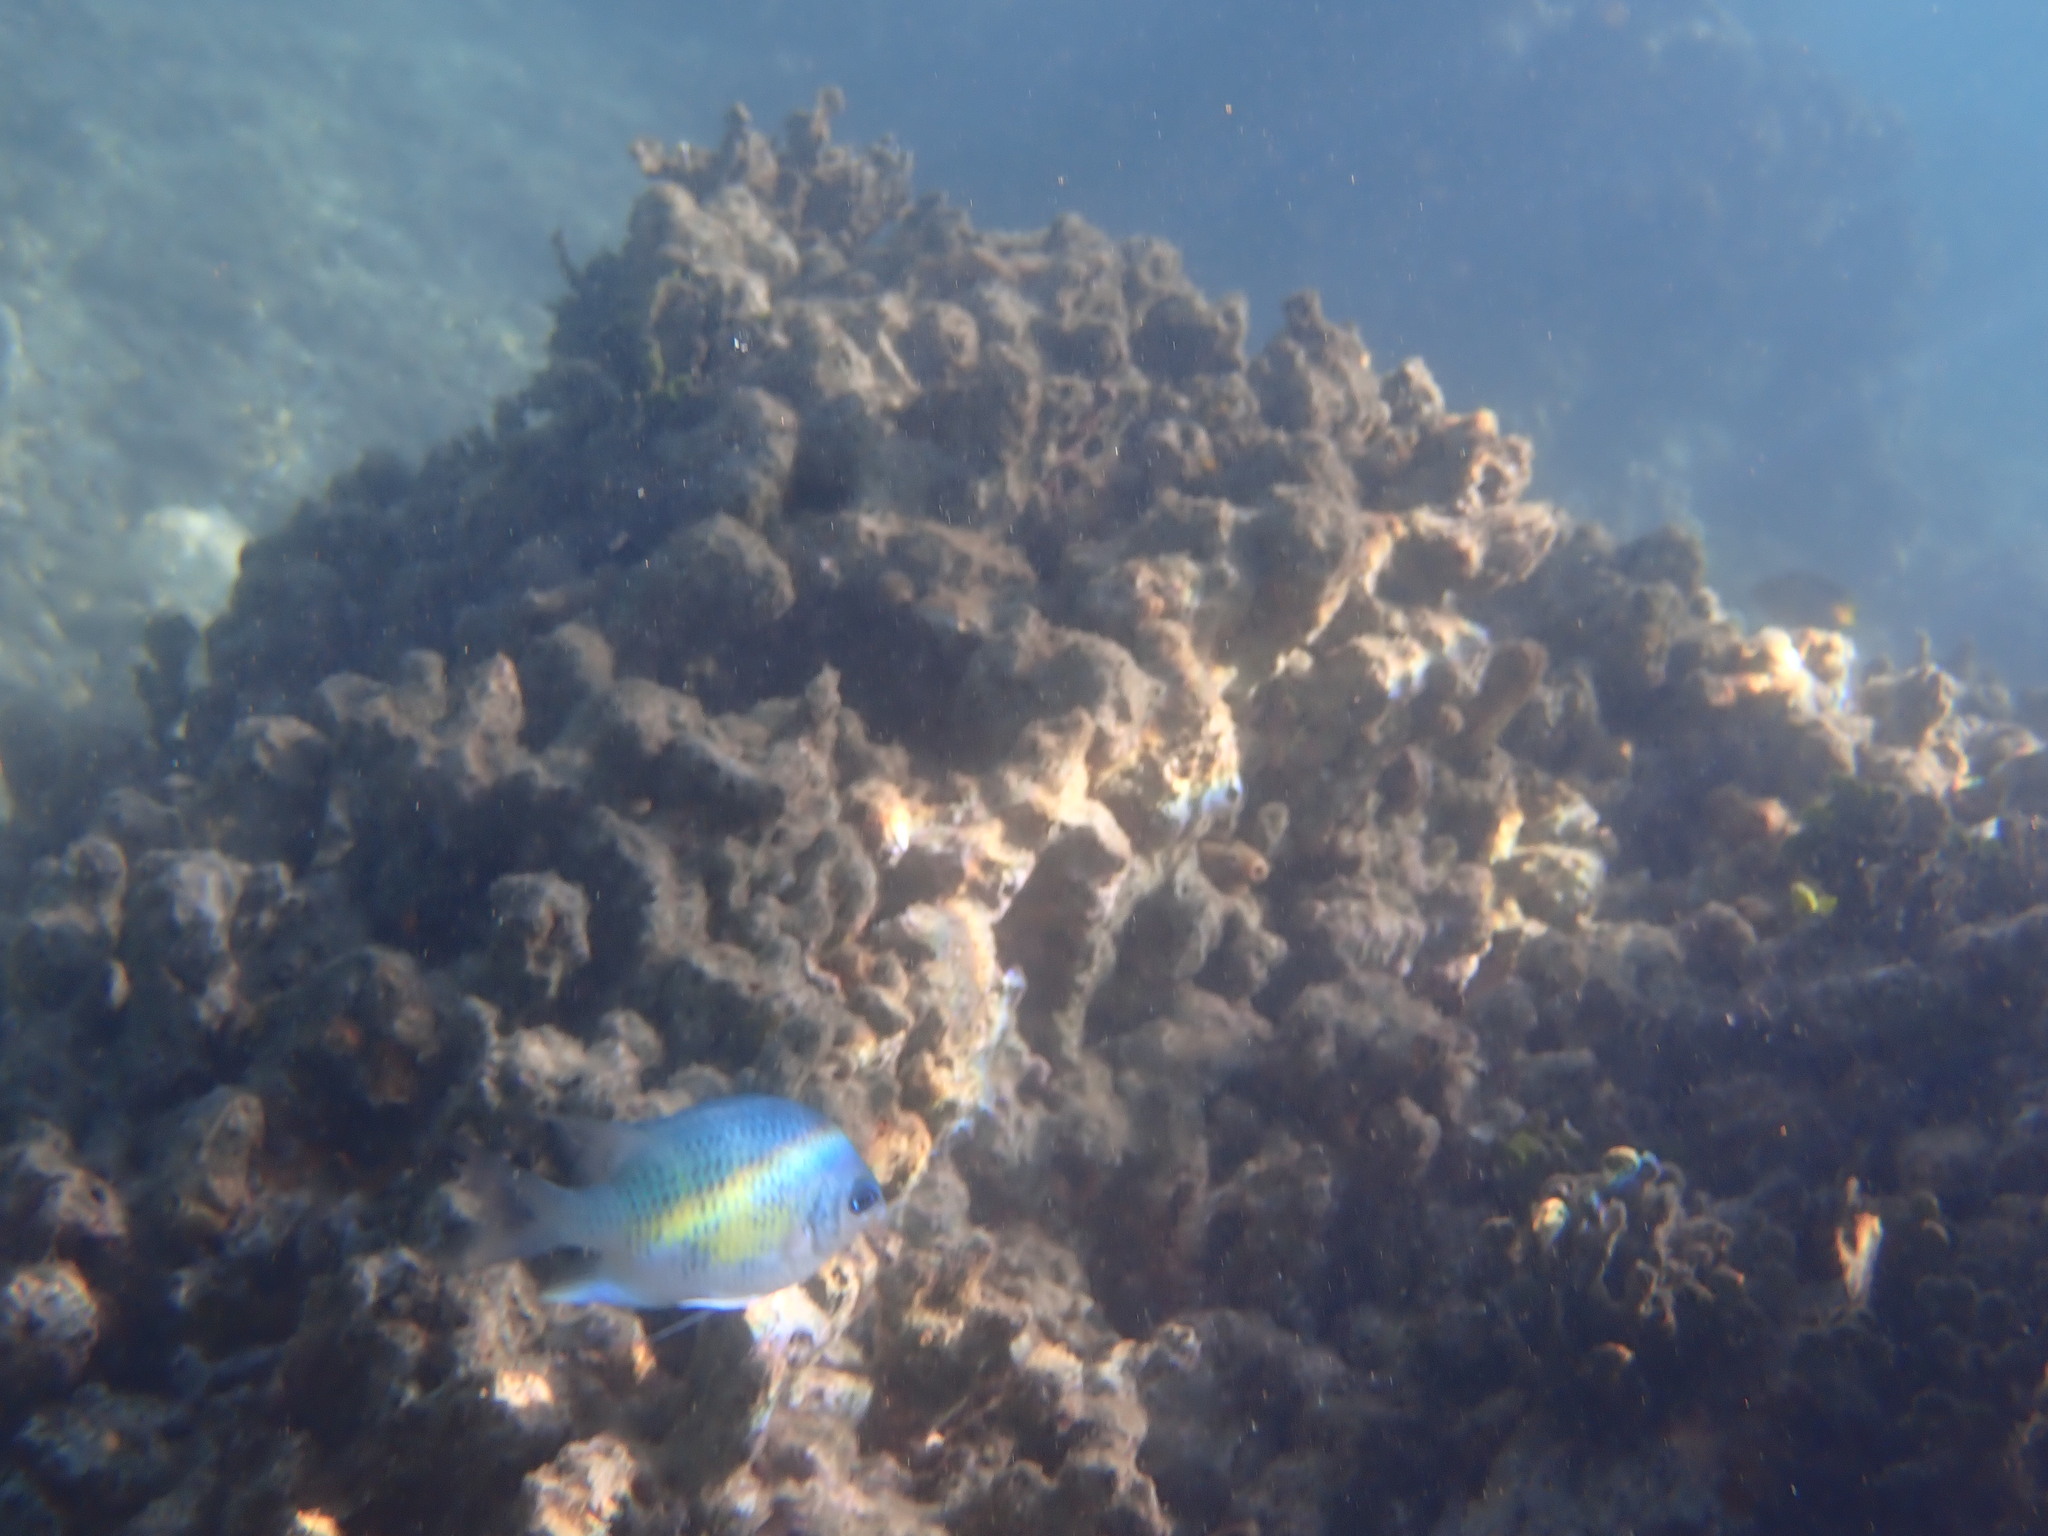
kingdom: Animalia
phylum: Chordata
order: Perciformes
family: Pomacentridae
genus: Amblyglyphidodon
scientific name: Amblyglyphidodon curacao
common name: Staghorn damsel
